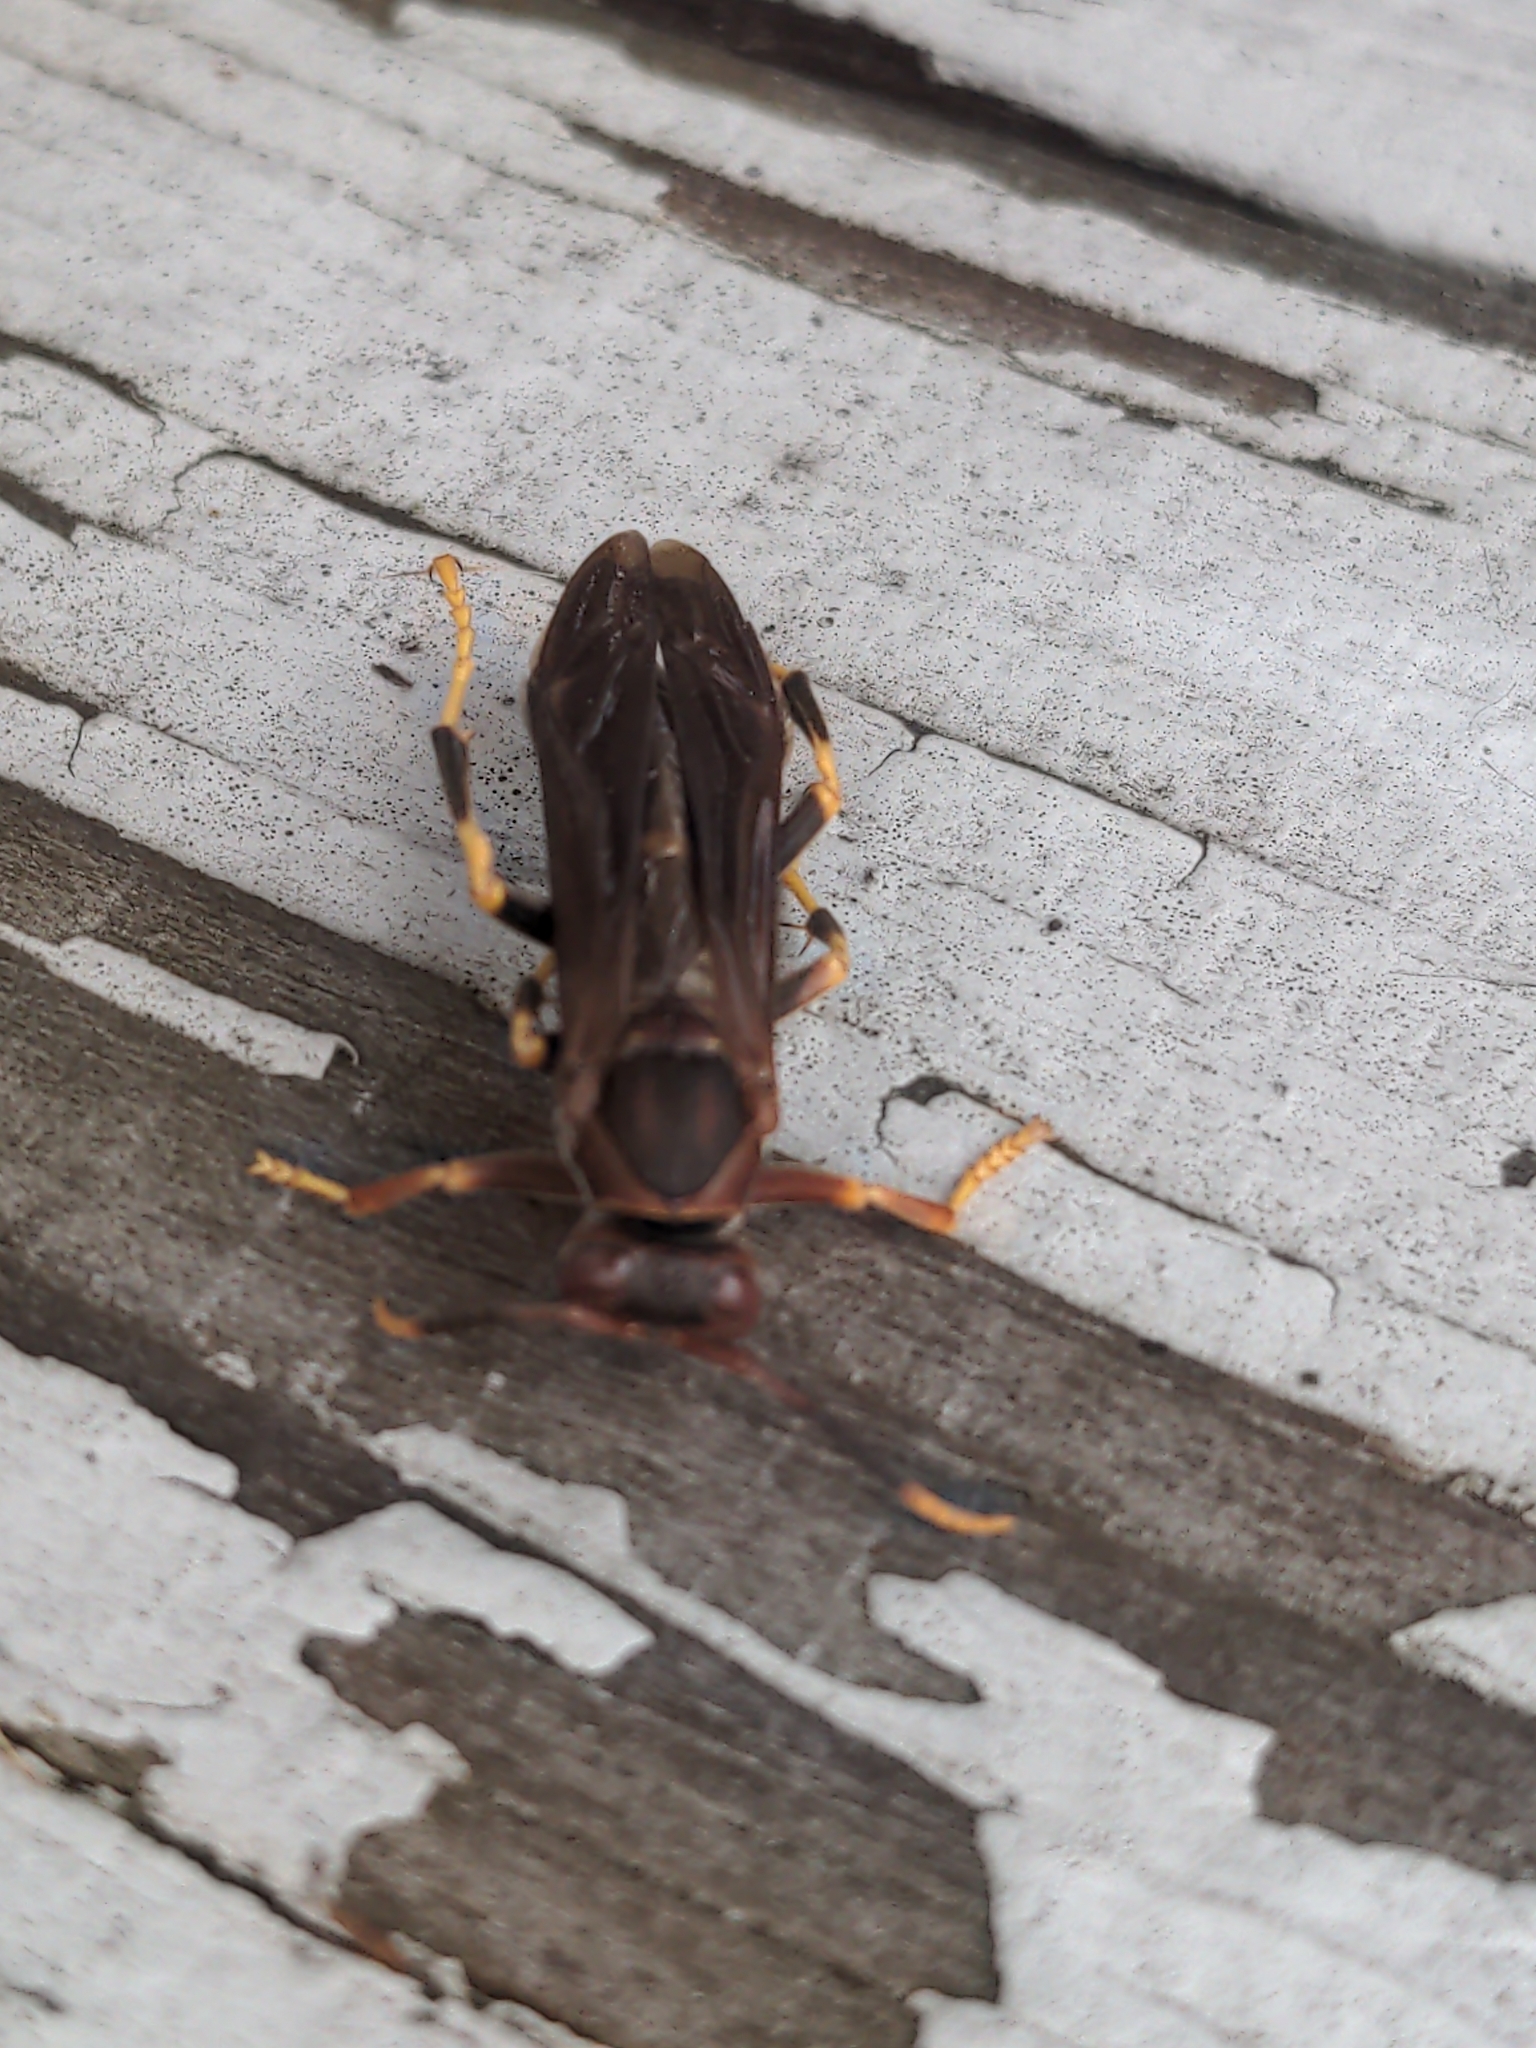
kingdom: Animalia
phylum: Arthropoda
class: Insecta
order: Hymenoptera
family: Eumenidae
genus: Polistes
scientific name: Polistes annularis
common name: Ringed paper wasp
